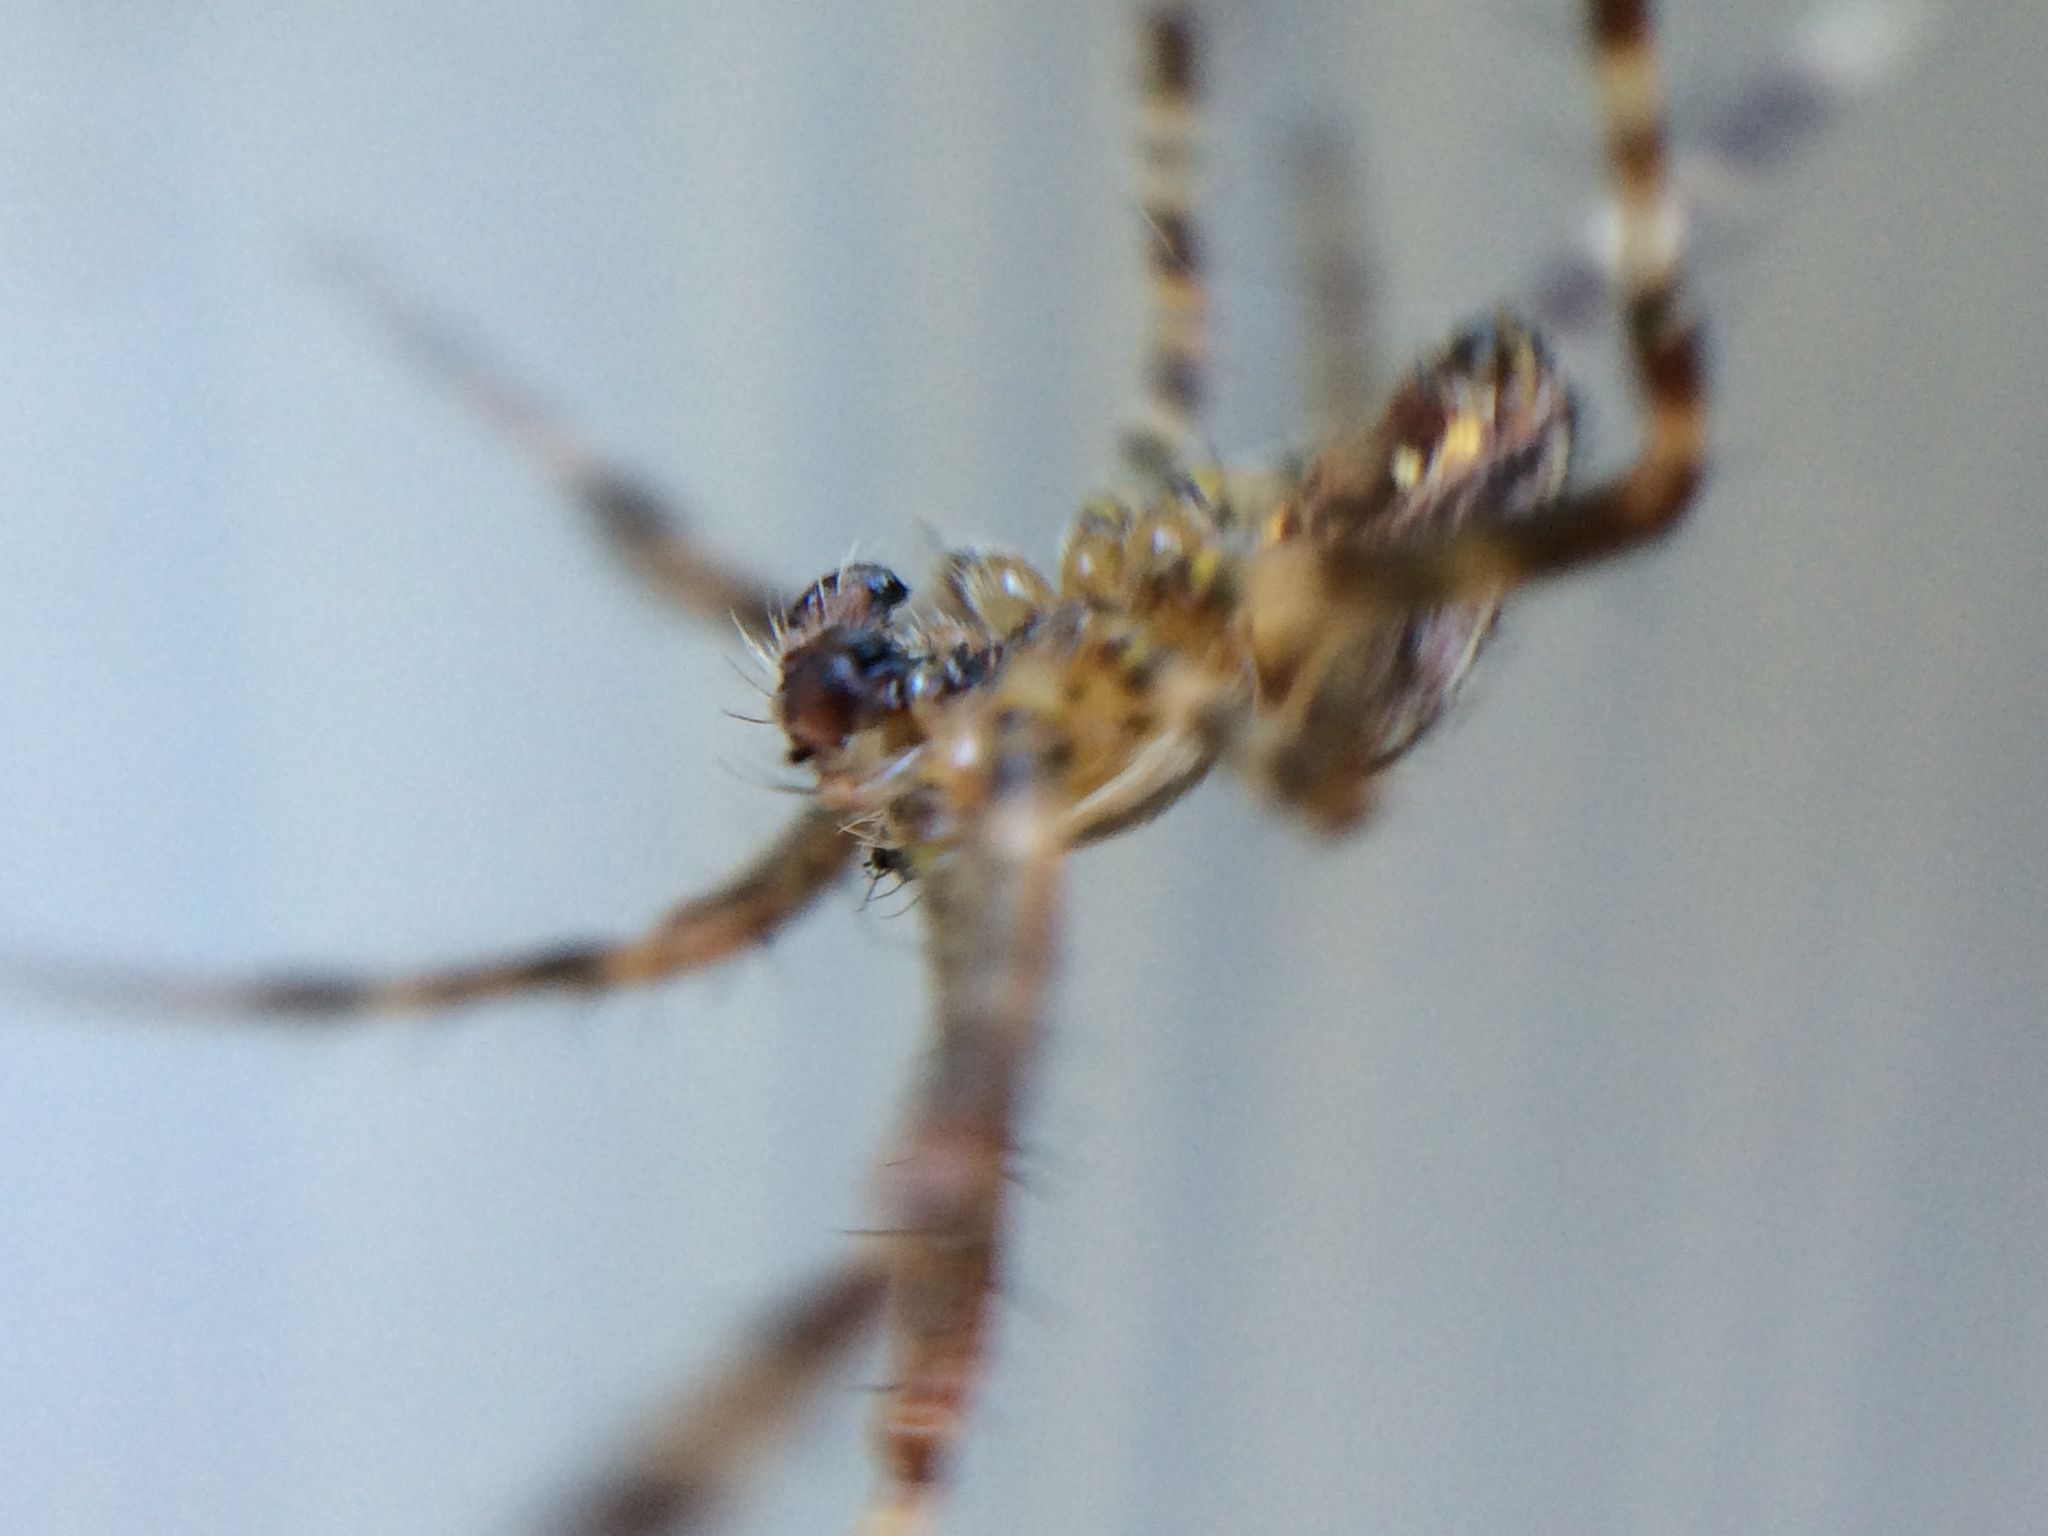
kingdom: Animalia
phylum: Arthropoda
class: Arachnida
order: Araneae
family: Araneidae
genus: Araneus
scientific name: Araneus diadematus
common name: Cross orbweaver
